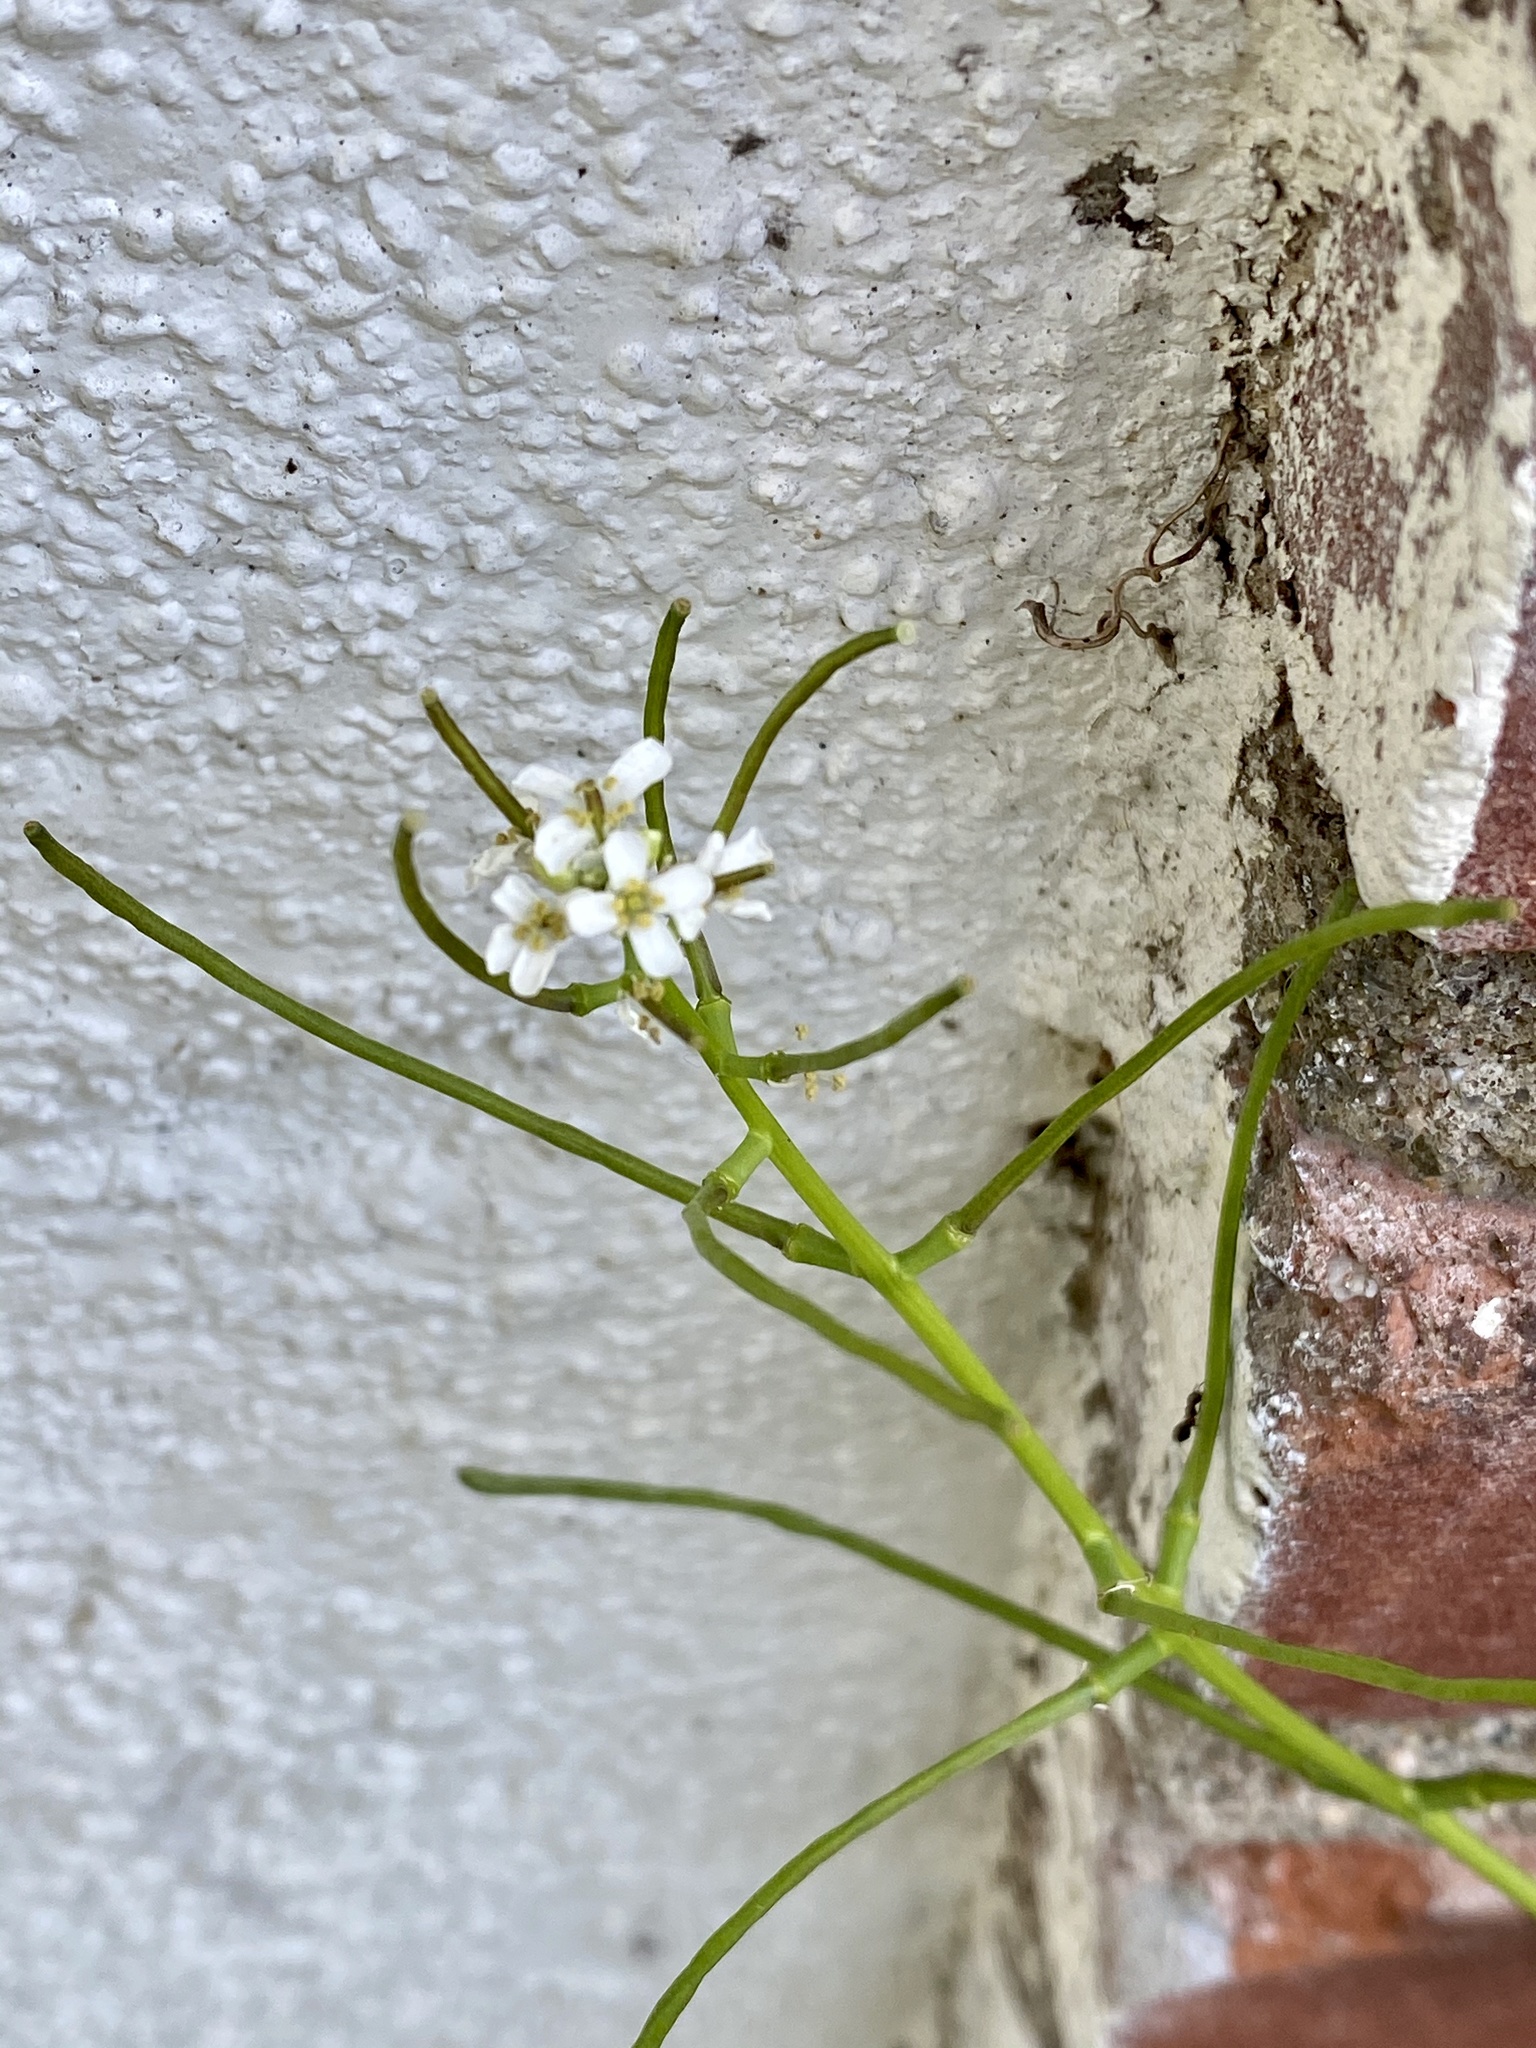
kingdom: Plantae
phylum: Tracheophyta
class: Magnoliopsida
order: Brassicales
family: Brassicaceae
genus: Alliaria
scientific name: Alliaria petiolata
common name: Garlic mustard
